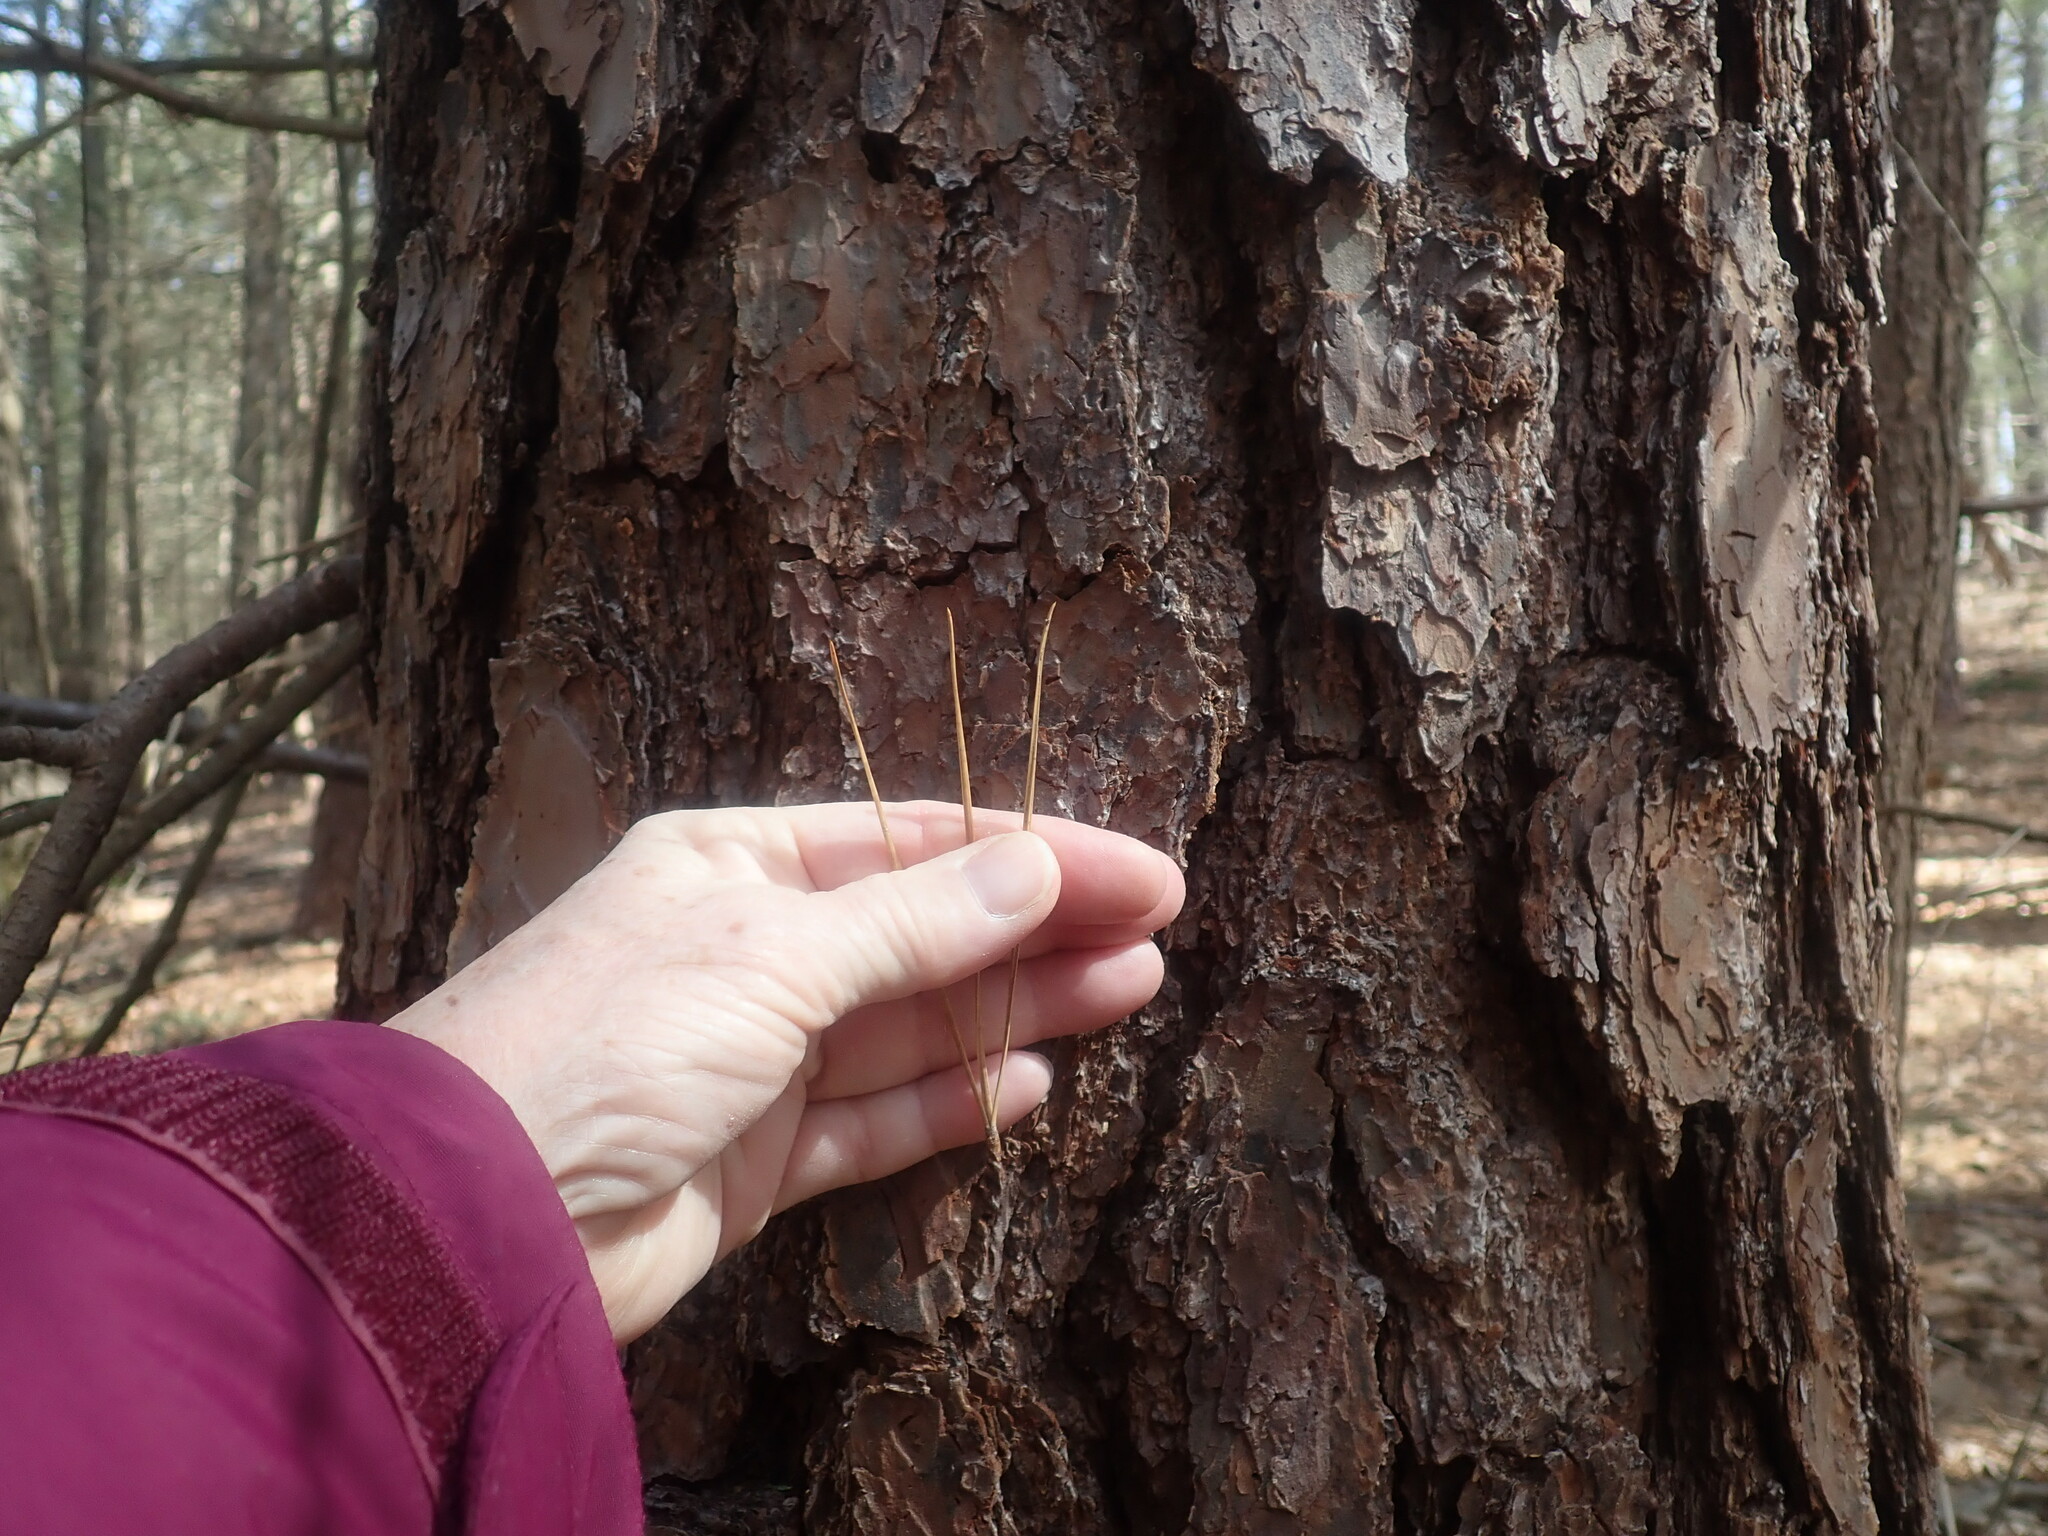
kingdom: Plantae
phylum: Tracheophyta
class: Pinopsida
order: Pinales
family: Pinaceae
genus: Pinus
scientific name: Pinus rigida
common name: Pitch pine
